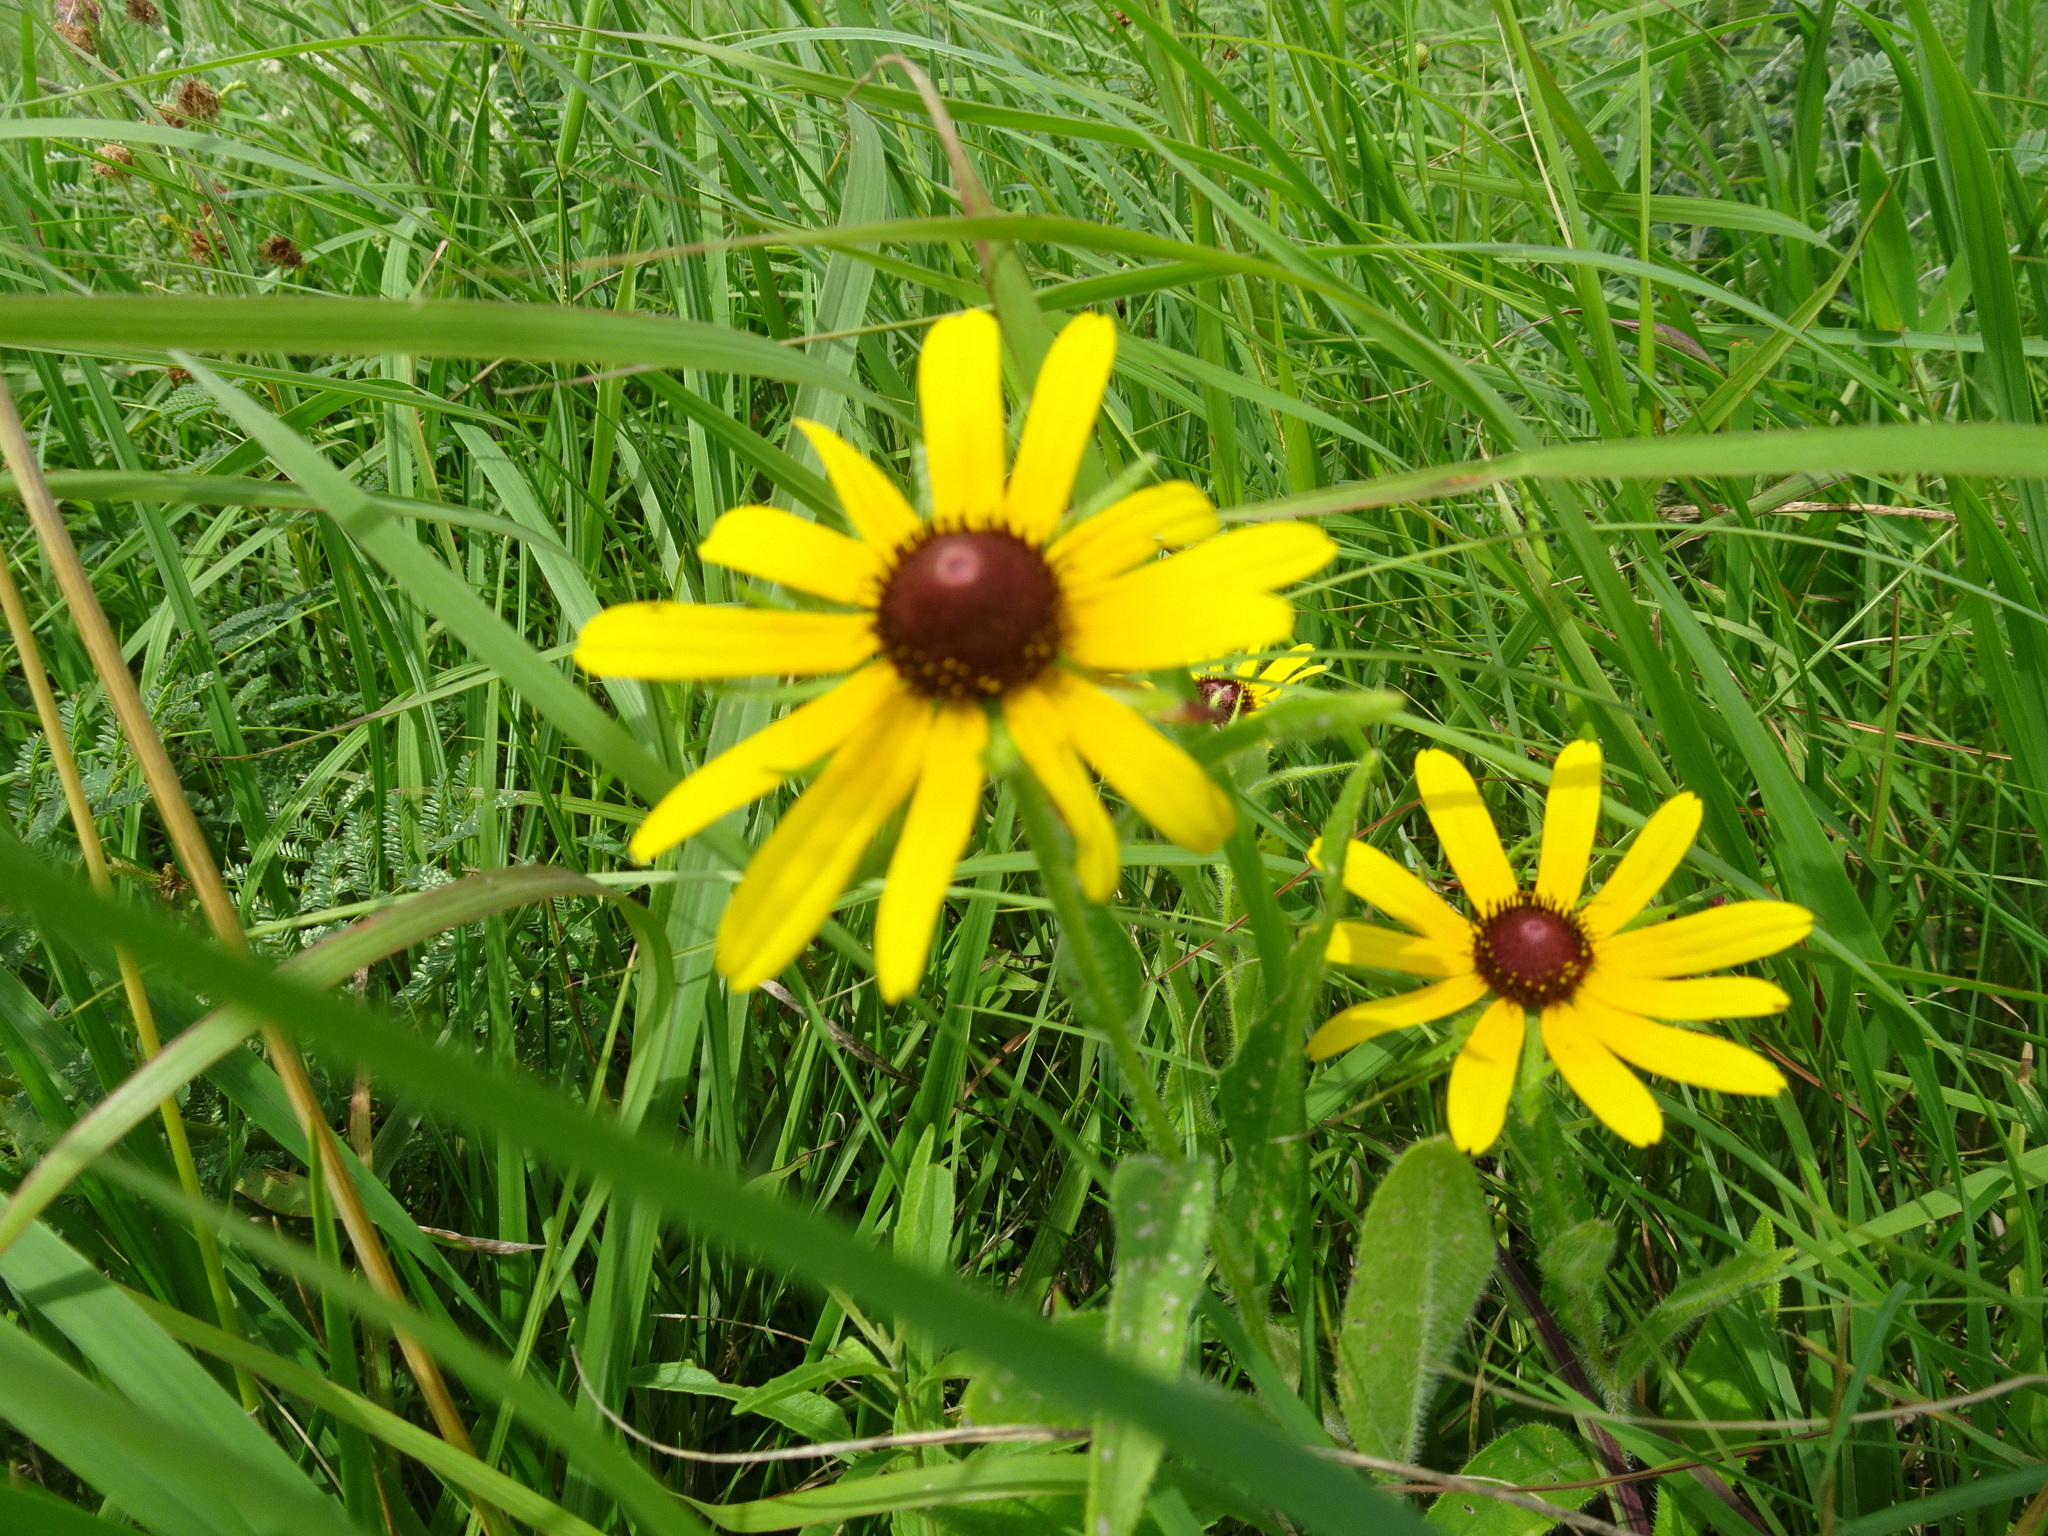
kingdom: Plantae
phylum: Tracheophyta
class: Magnoliopsida
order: Asterales
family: Asteraceae
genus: Rudbeckia
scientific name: Rudbeckia hirta
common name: Black-eyed-susan
